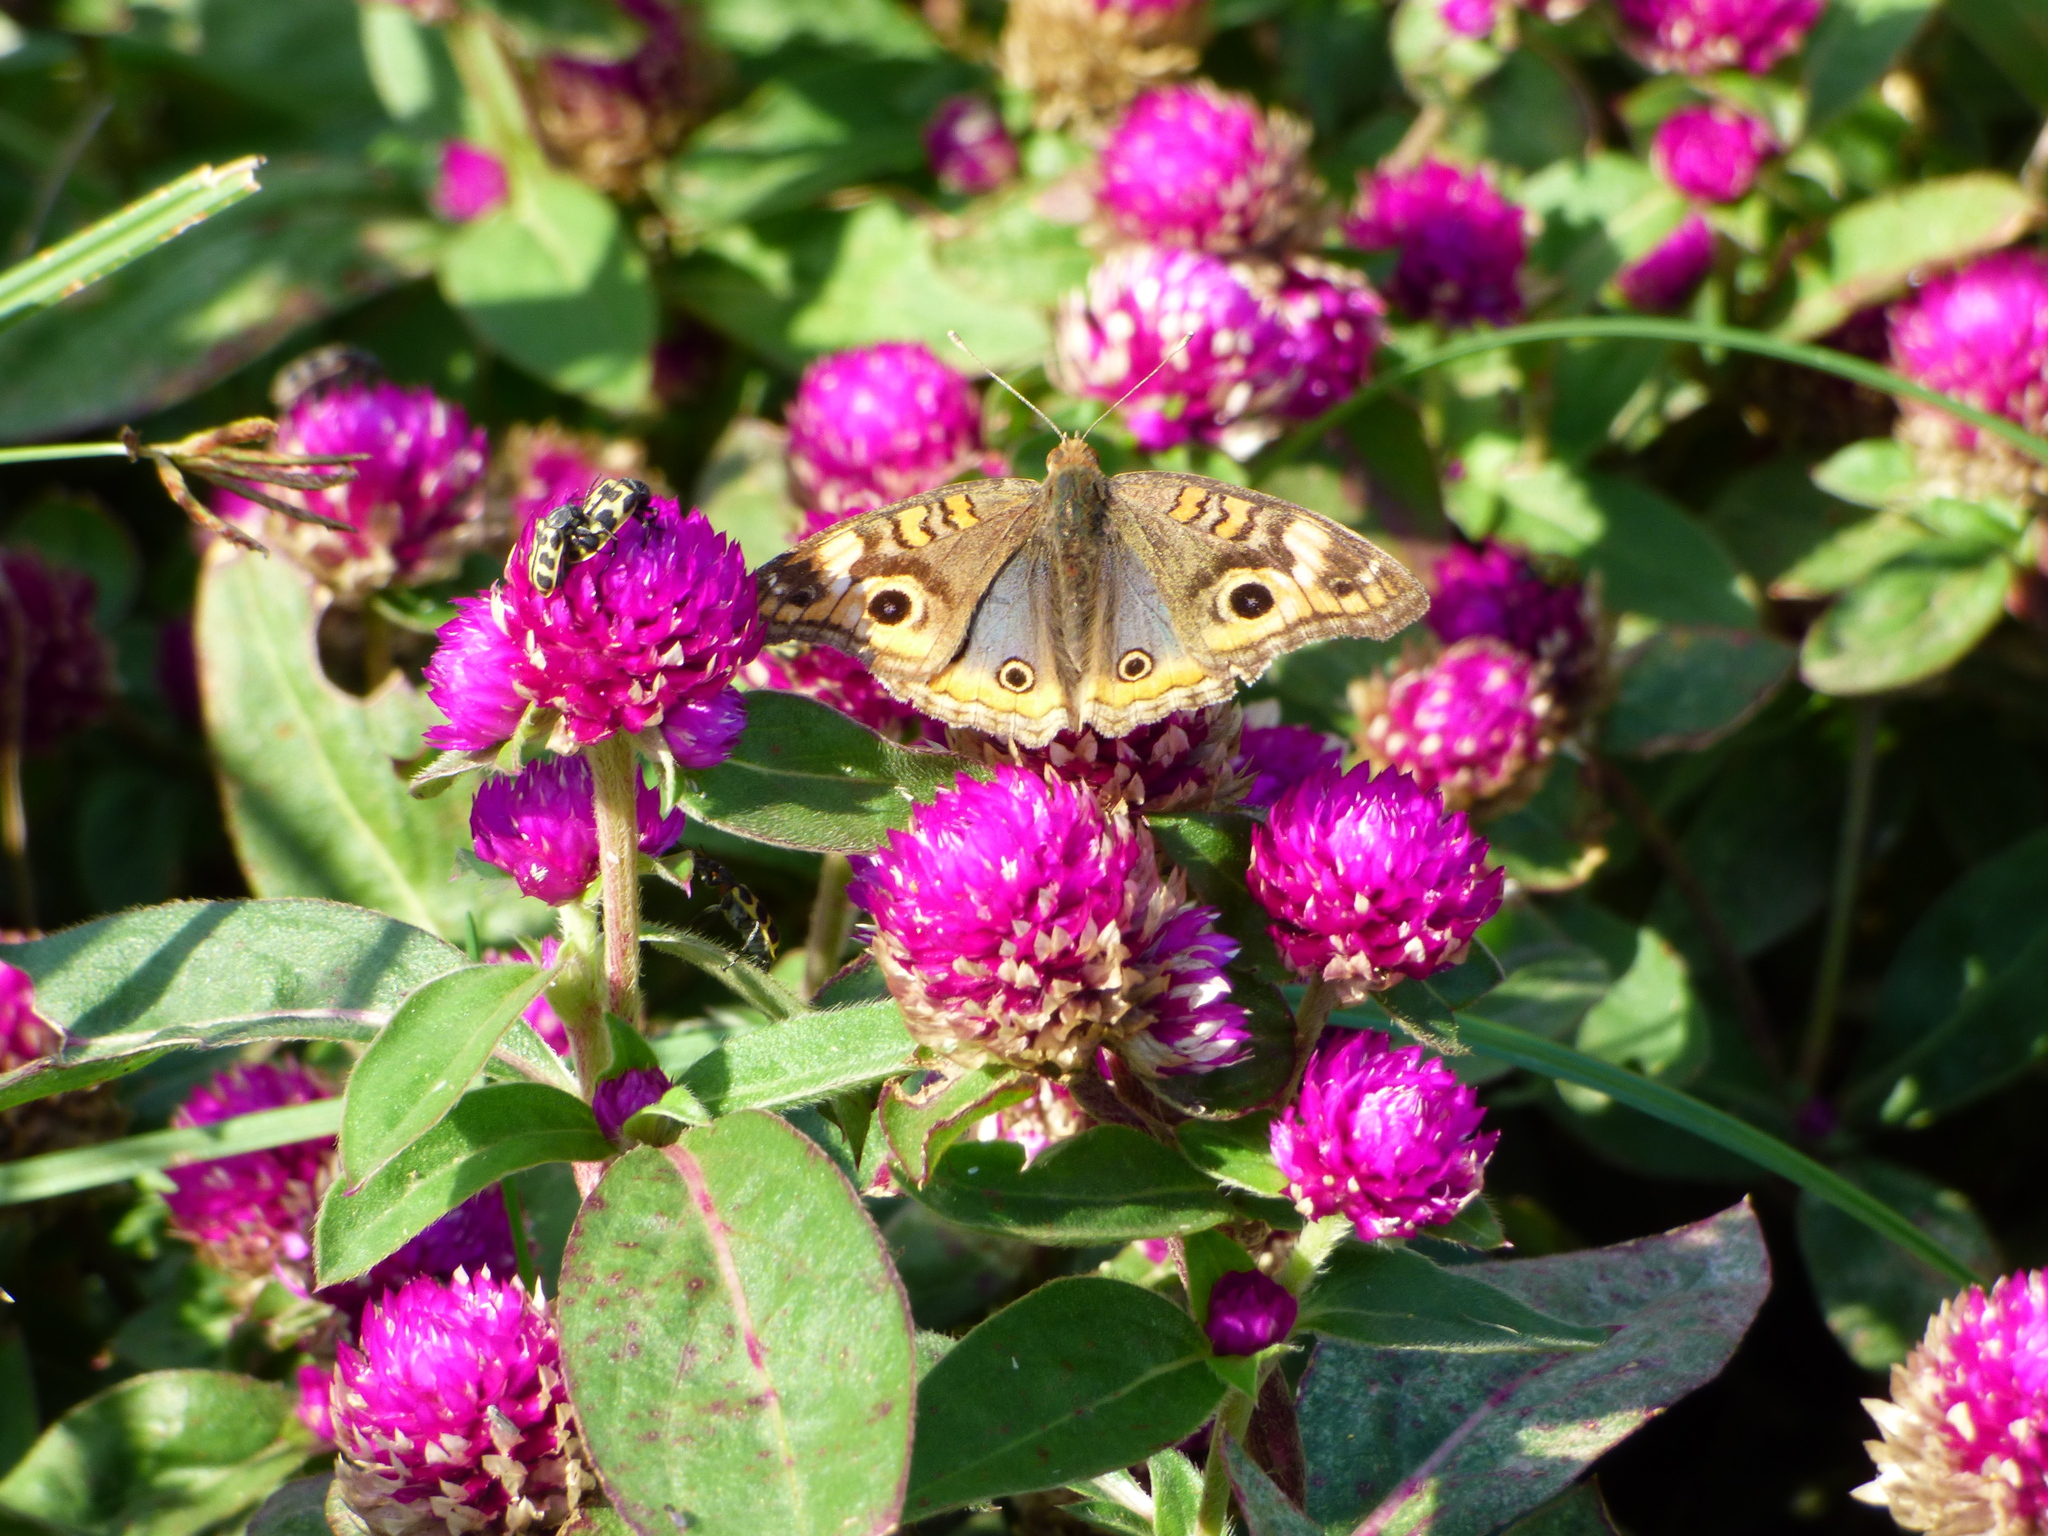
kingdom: Animalia
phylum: Arthropoda
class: Insecta
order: Lepidoptera
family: Nymphalidae
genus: Junonia
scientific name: Junonia lavinia
